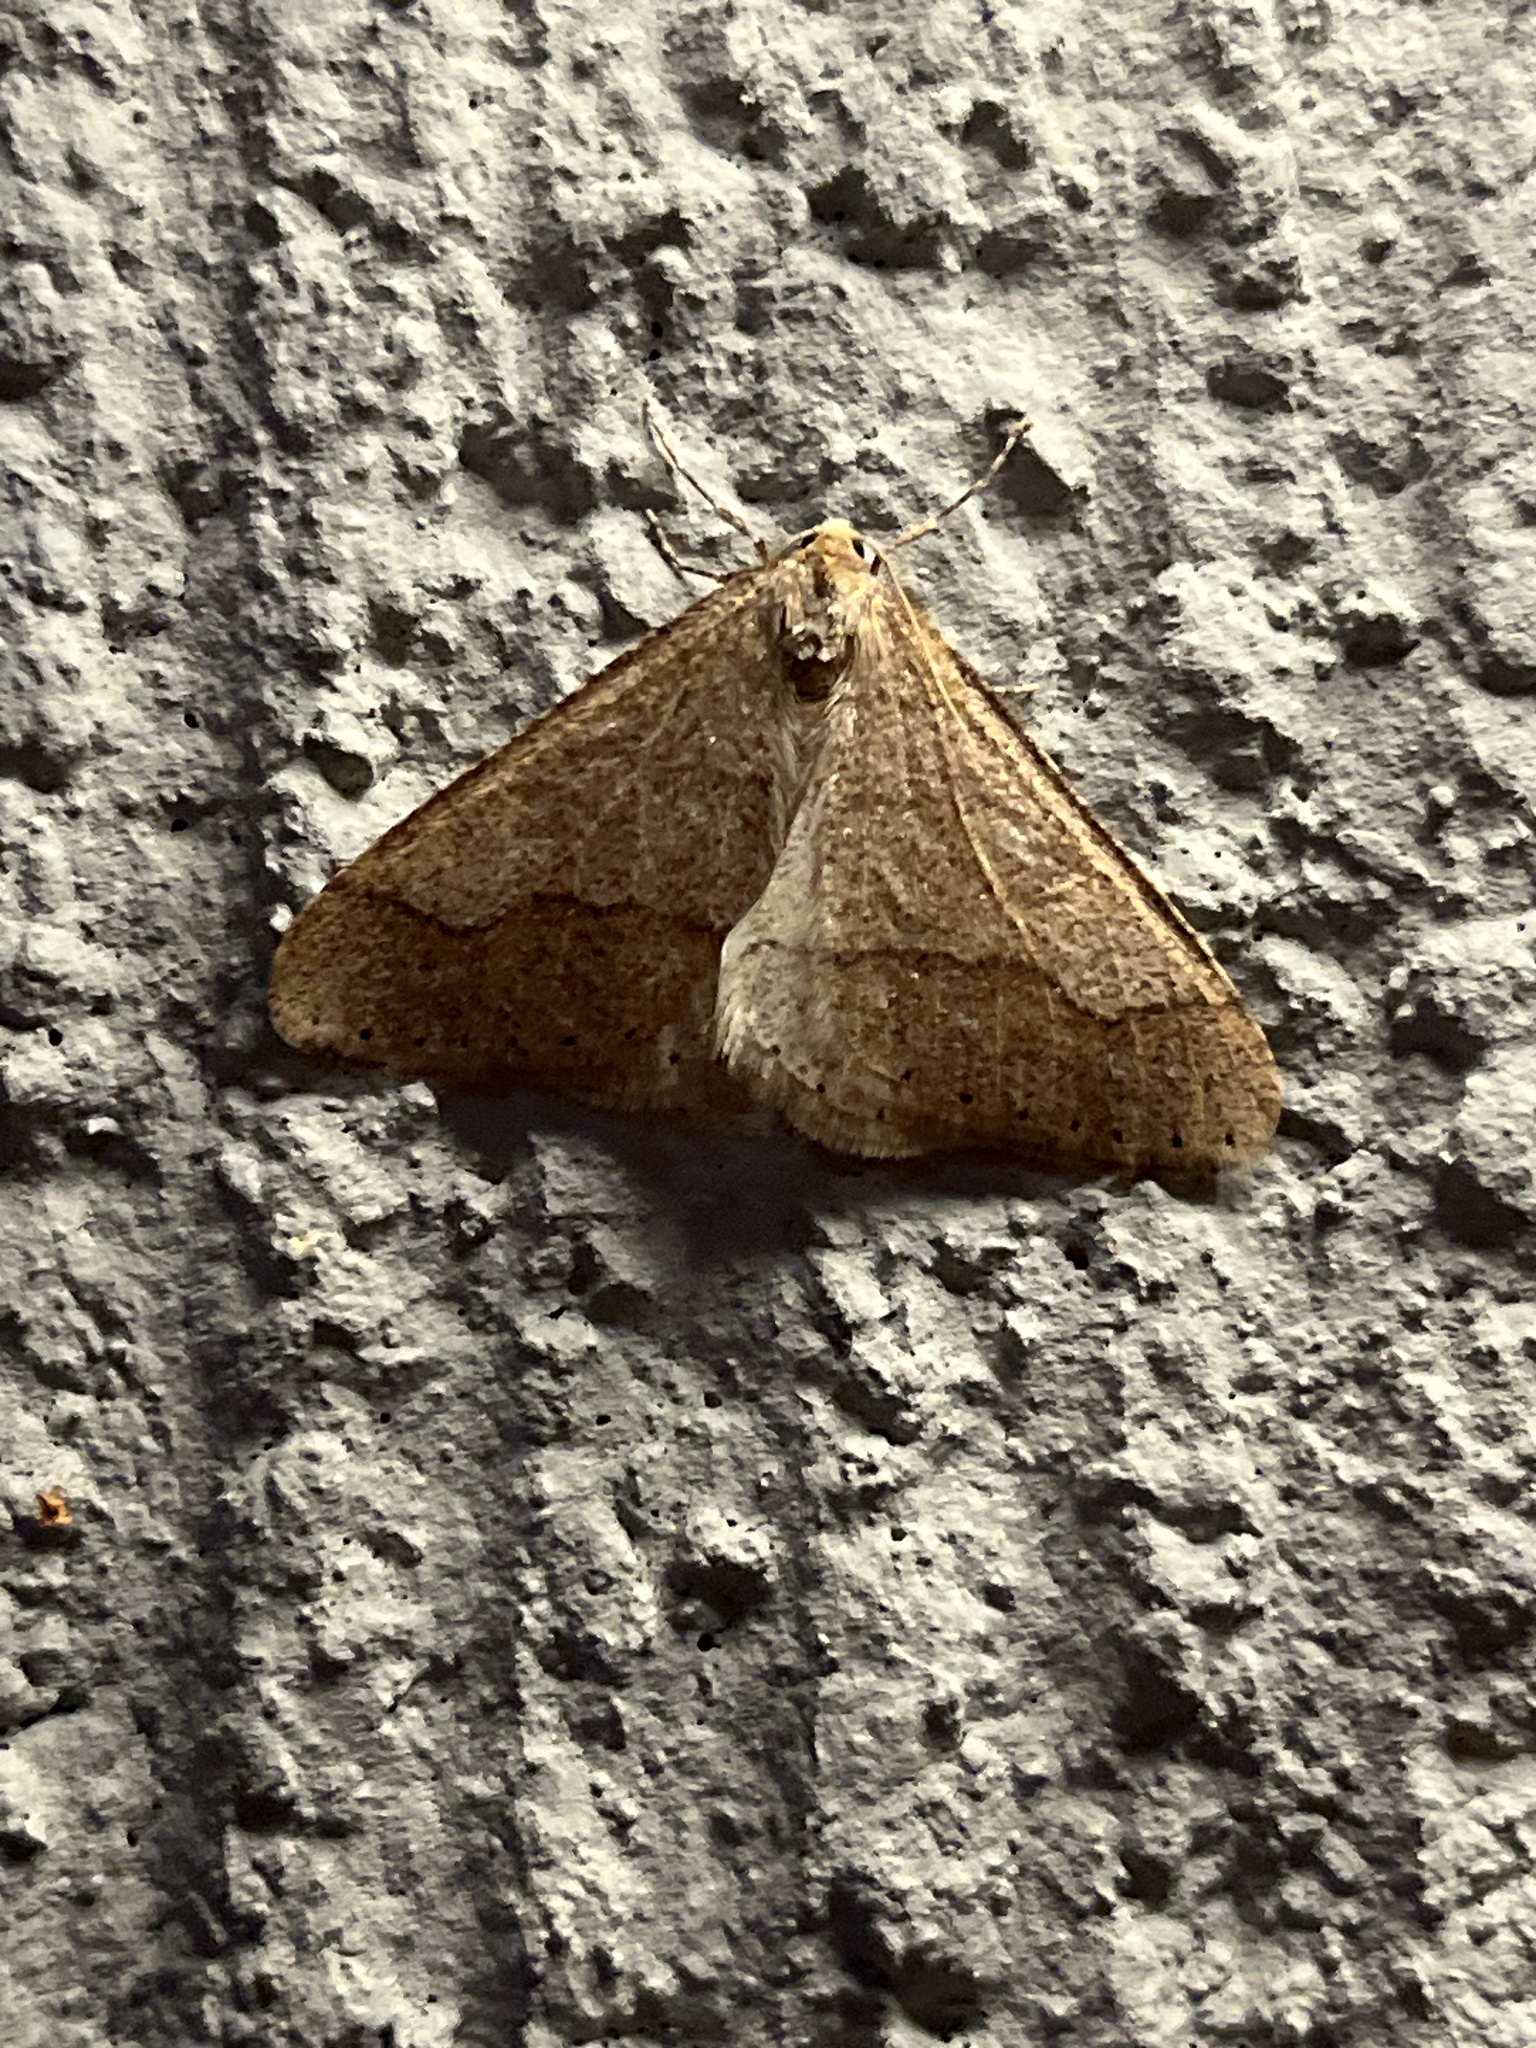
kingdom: Animalia
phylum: Arthropoda
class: Insecta
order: Lepidoptera
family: Geometridae
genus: Agriopis
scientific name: Agriopis marginaria
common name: Dotted border
